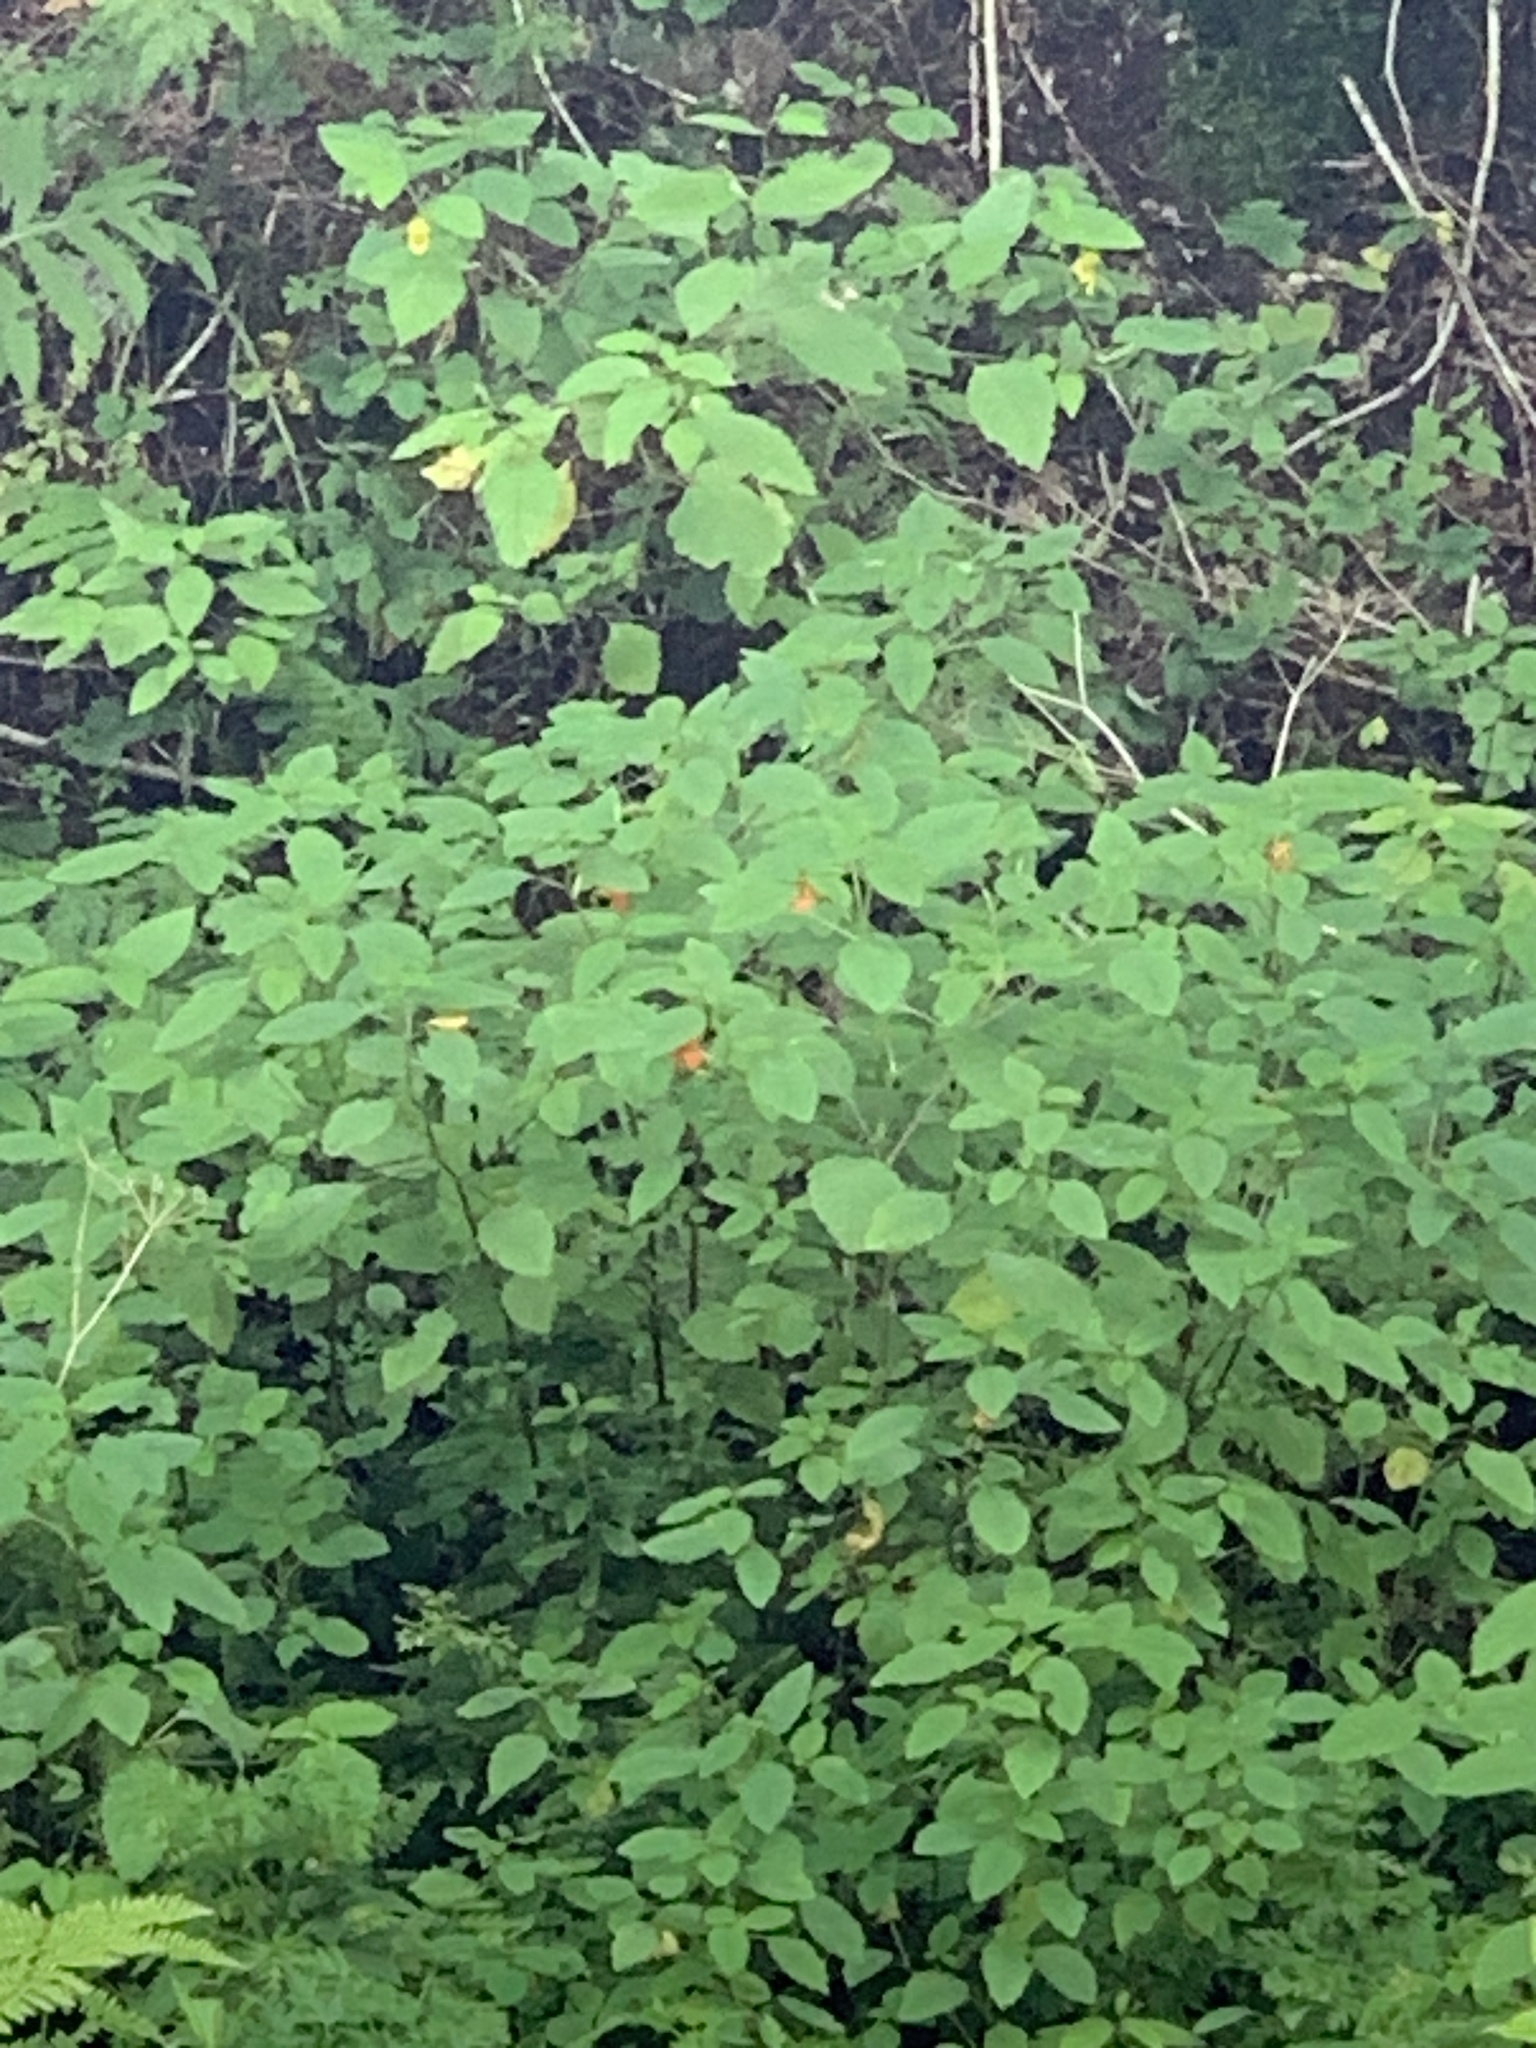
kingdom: Plantae
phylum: Tracheophyta
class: Magnoliopsida
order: Ericales
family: Balsaminaceae
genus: Impatiens
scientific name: Impatiens capensis
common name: Orange balsam
